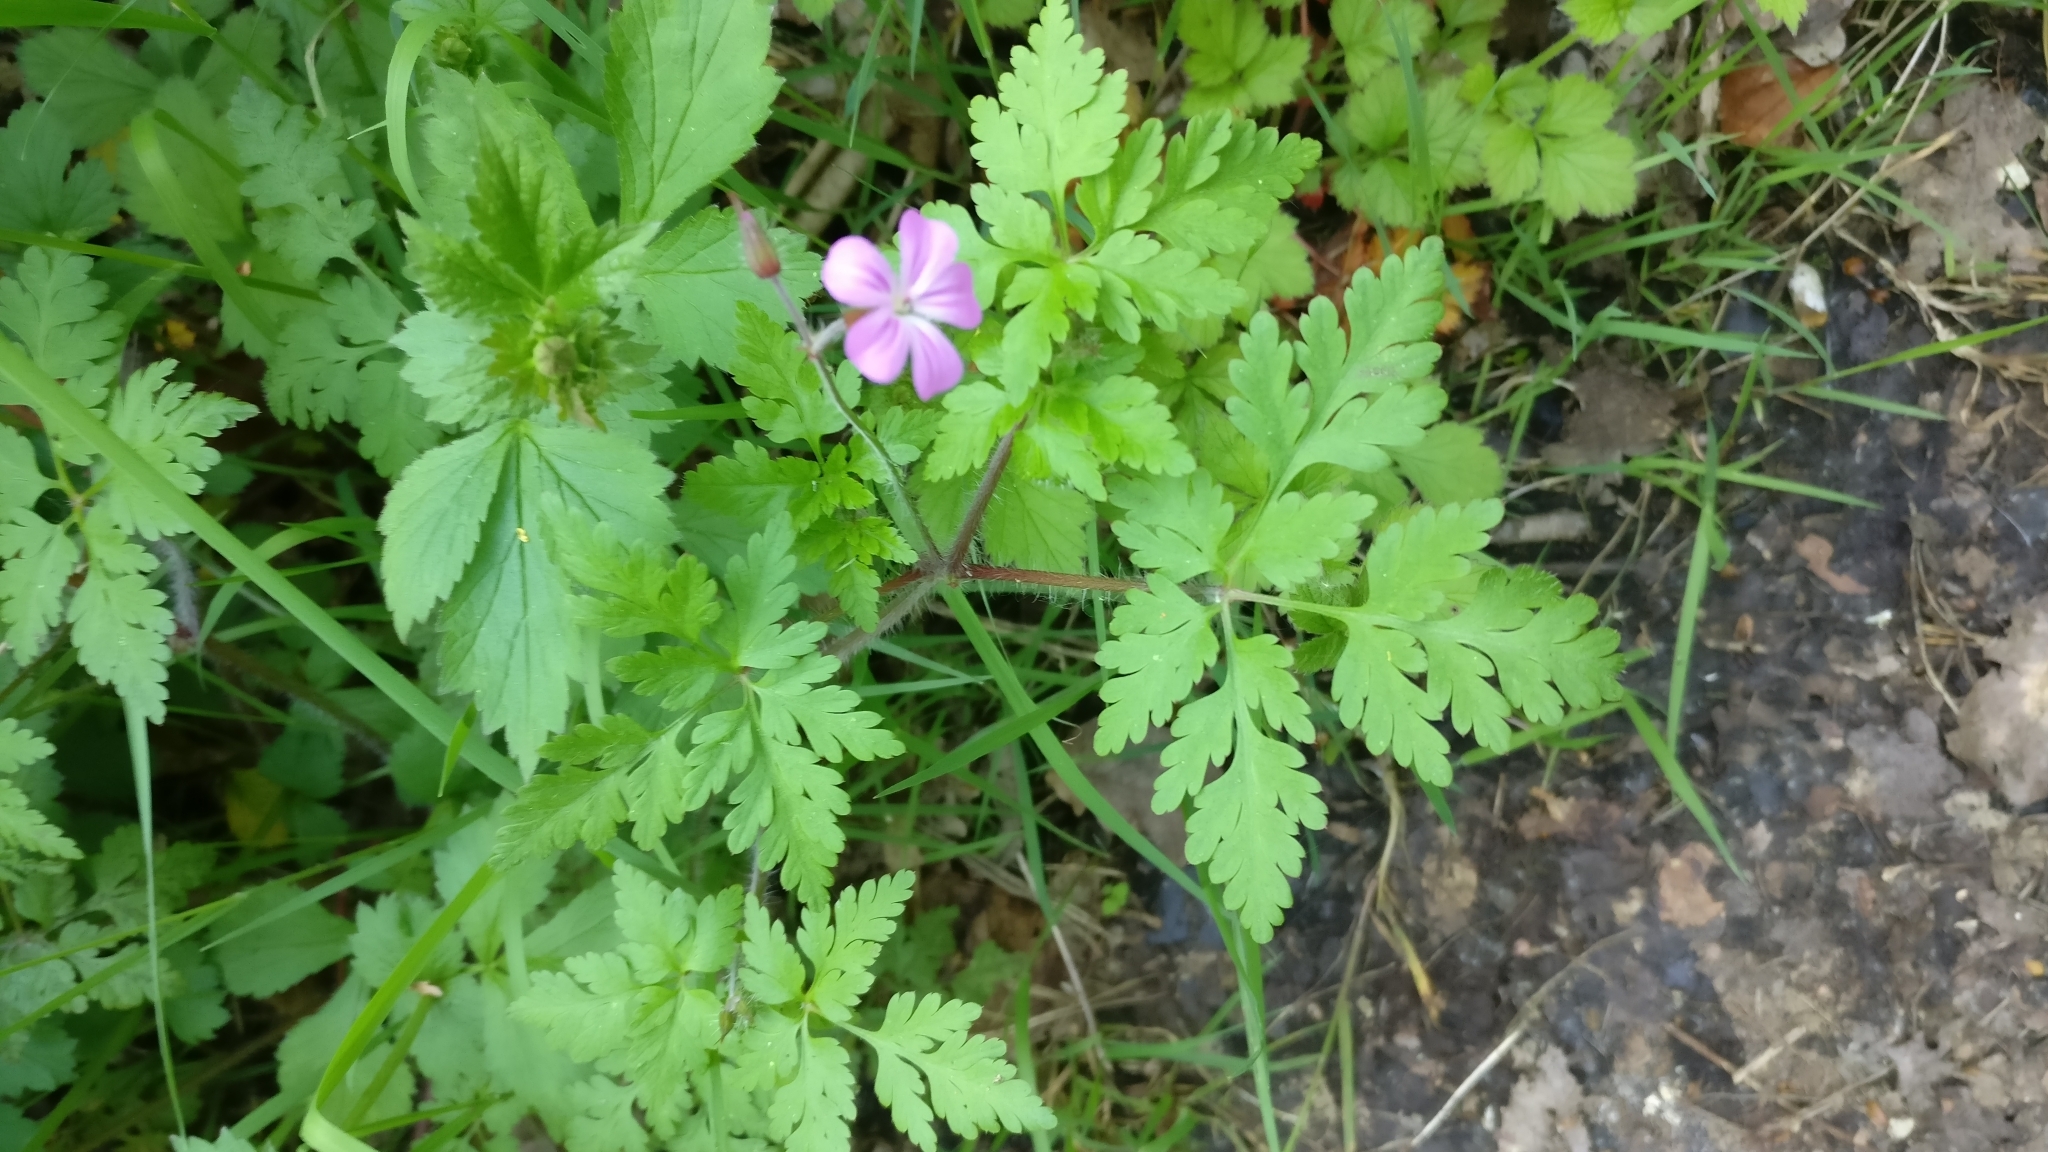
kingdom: Plantae
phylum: Tracheophyta
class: Magnoliopsida
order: Geraniales
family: Geraniaceae
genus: Geranium
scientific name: Geranium robertianum
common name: Herb-robert
